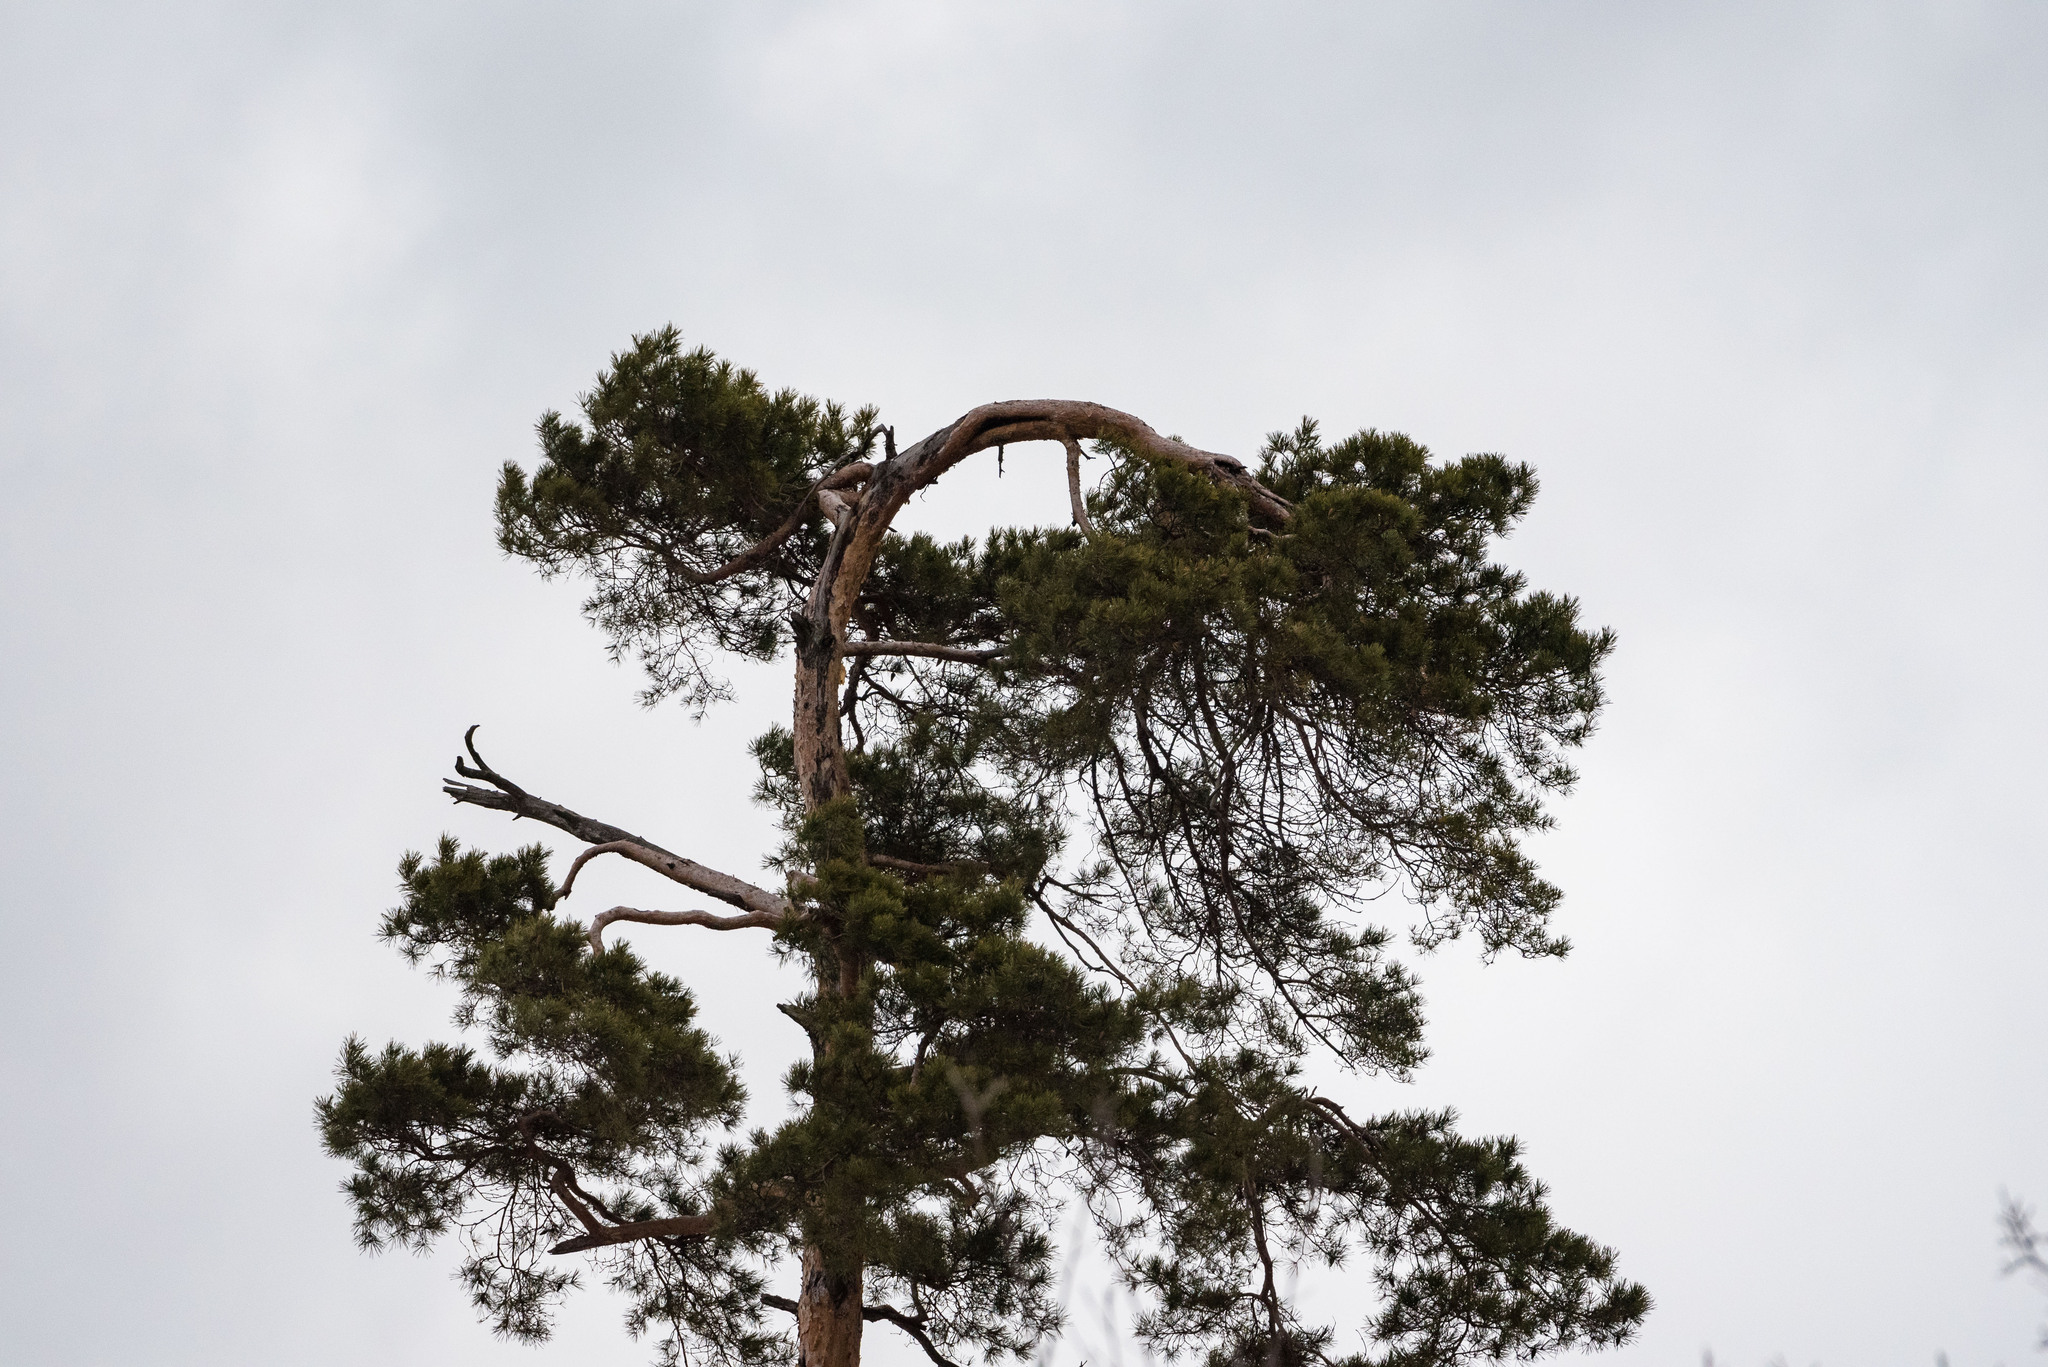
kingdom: Plantae
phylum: Tracheophyta
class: Pinopsida
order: Pinales
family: Pinaceae
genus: Pinus
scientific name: Pinus sylvestris
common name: Scots pine
